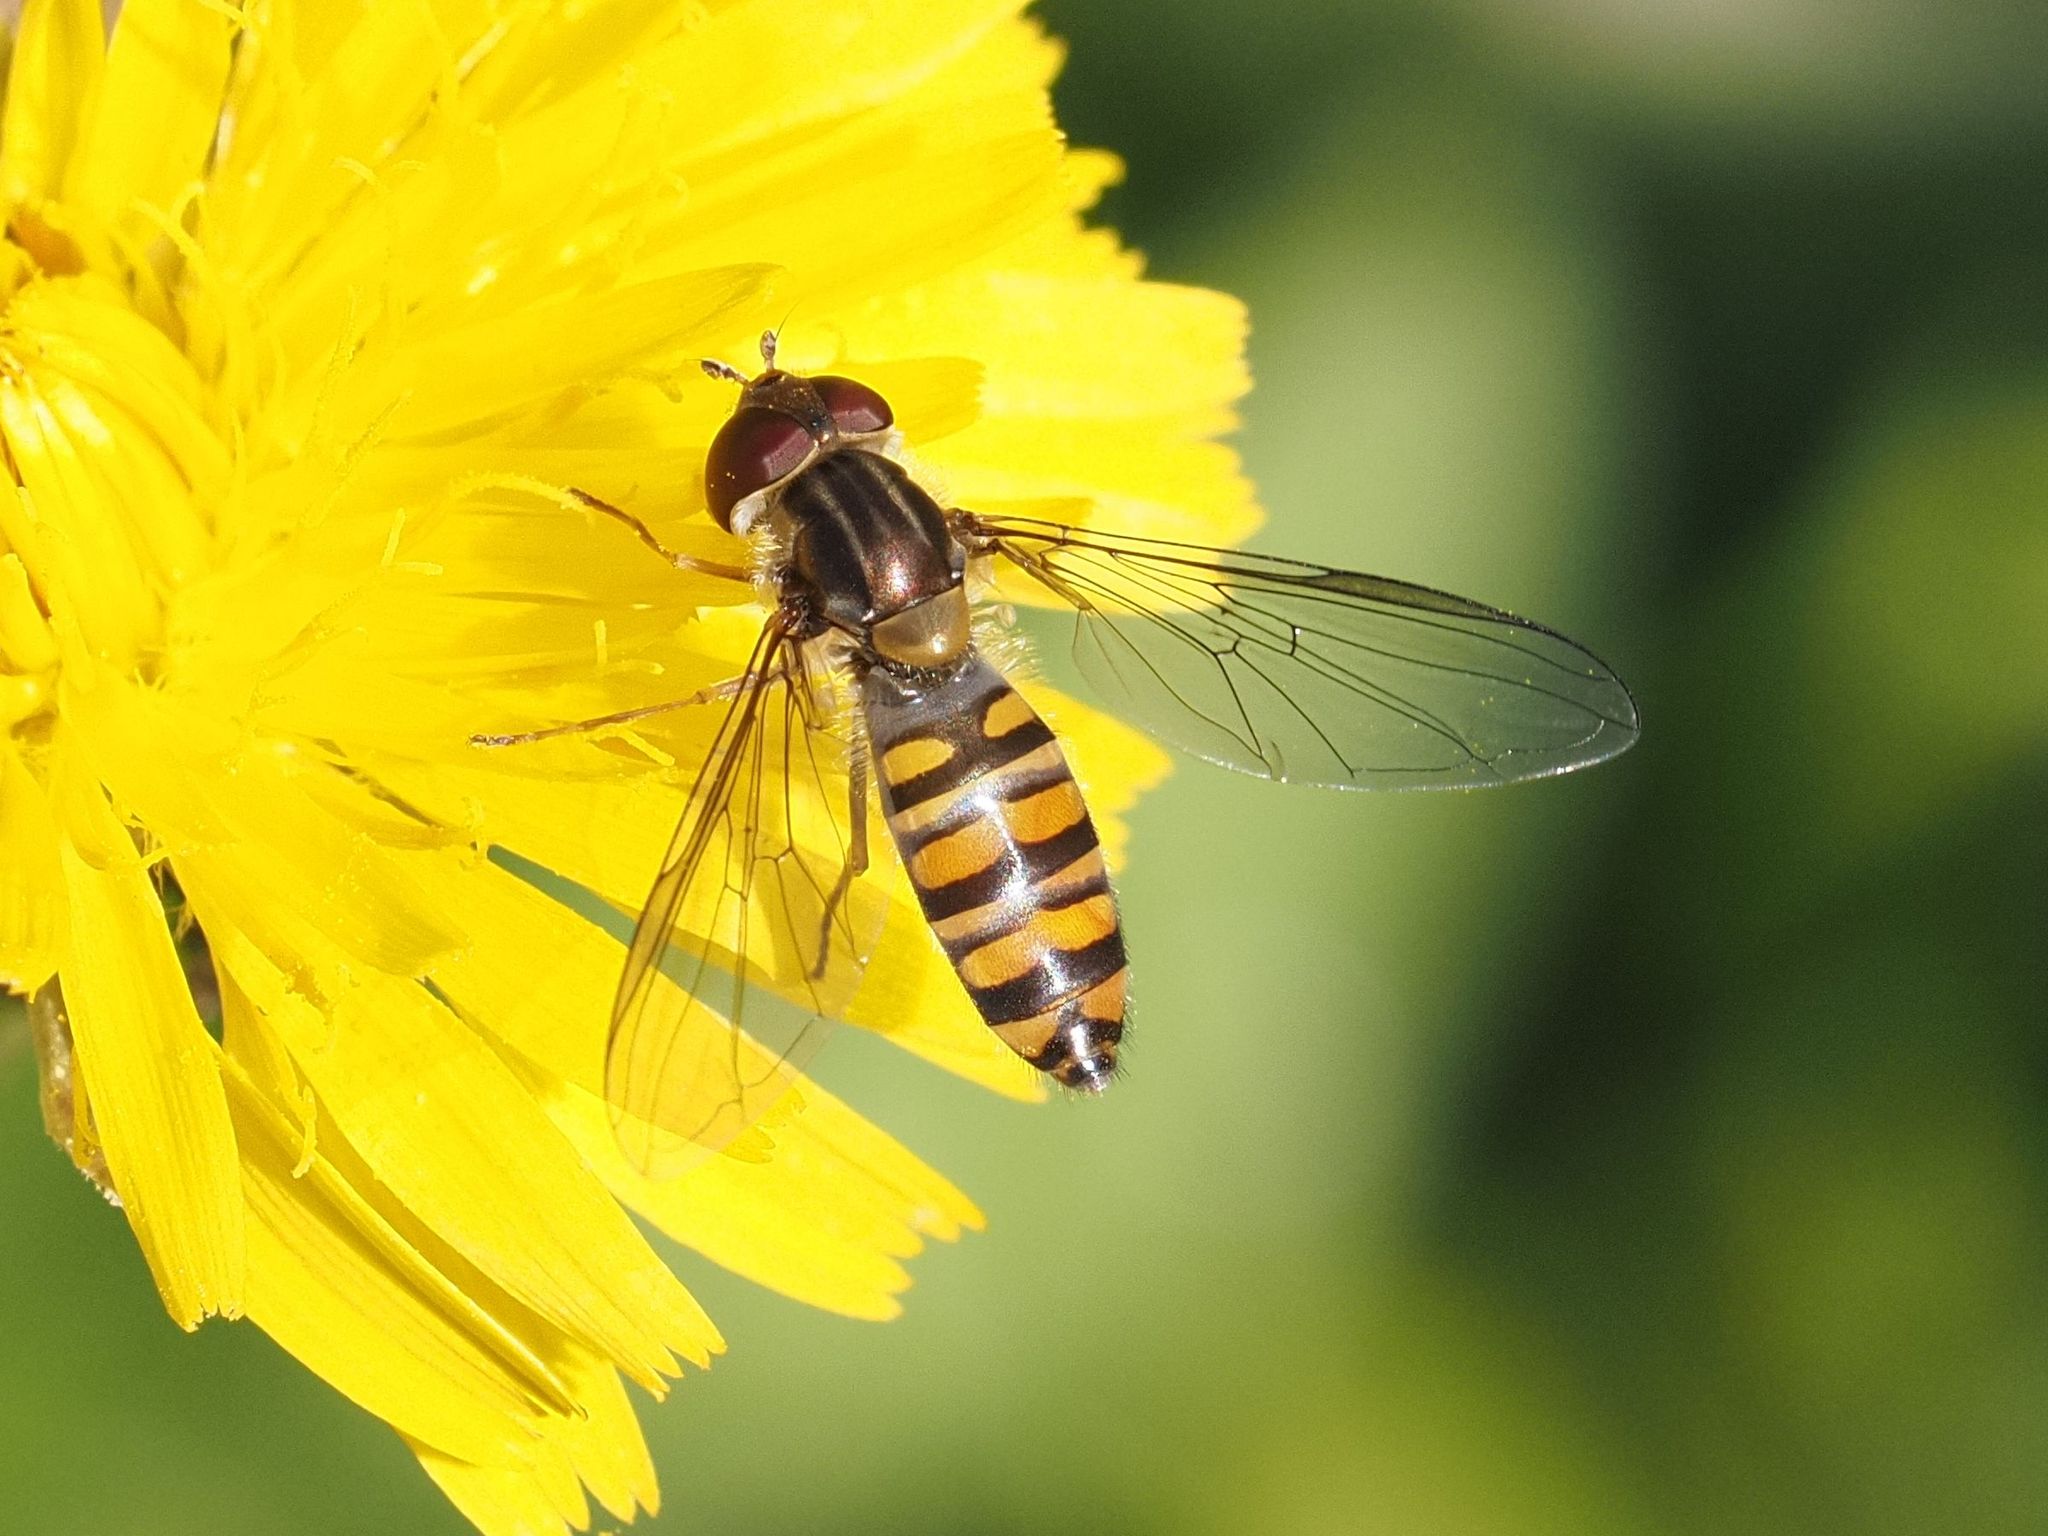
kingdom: Animalia
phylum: Arthropoda
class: Insecta
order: Diptera
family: Syrphidae
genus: Episyrphus
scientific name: Episyrphus balteatus
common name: Marmalade hoverfly
